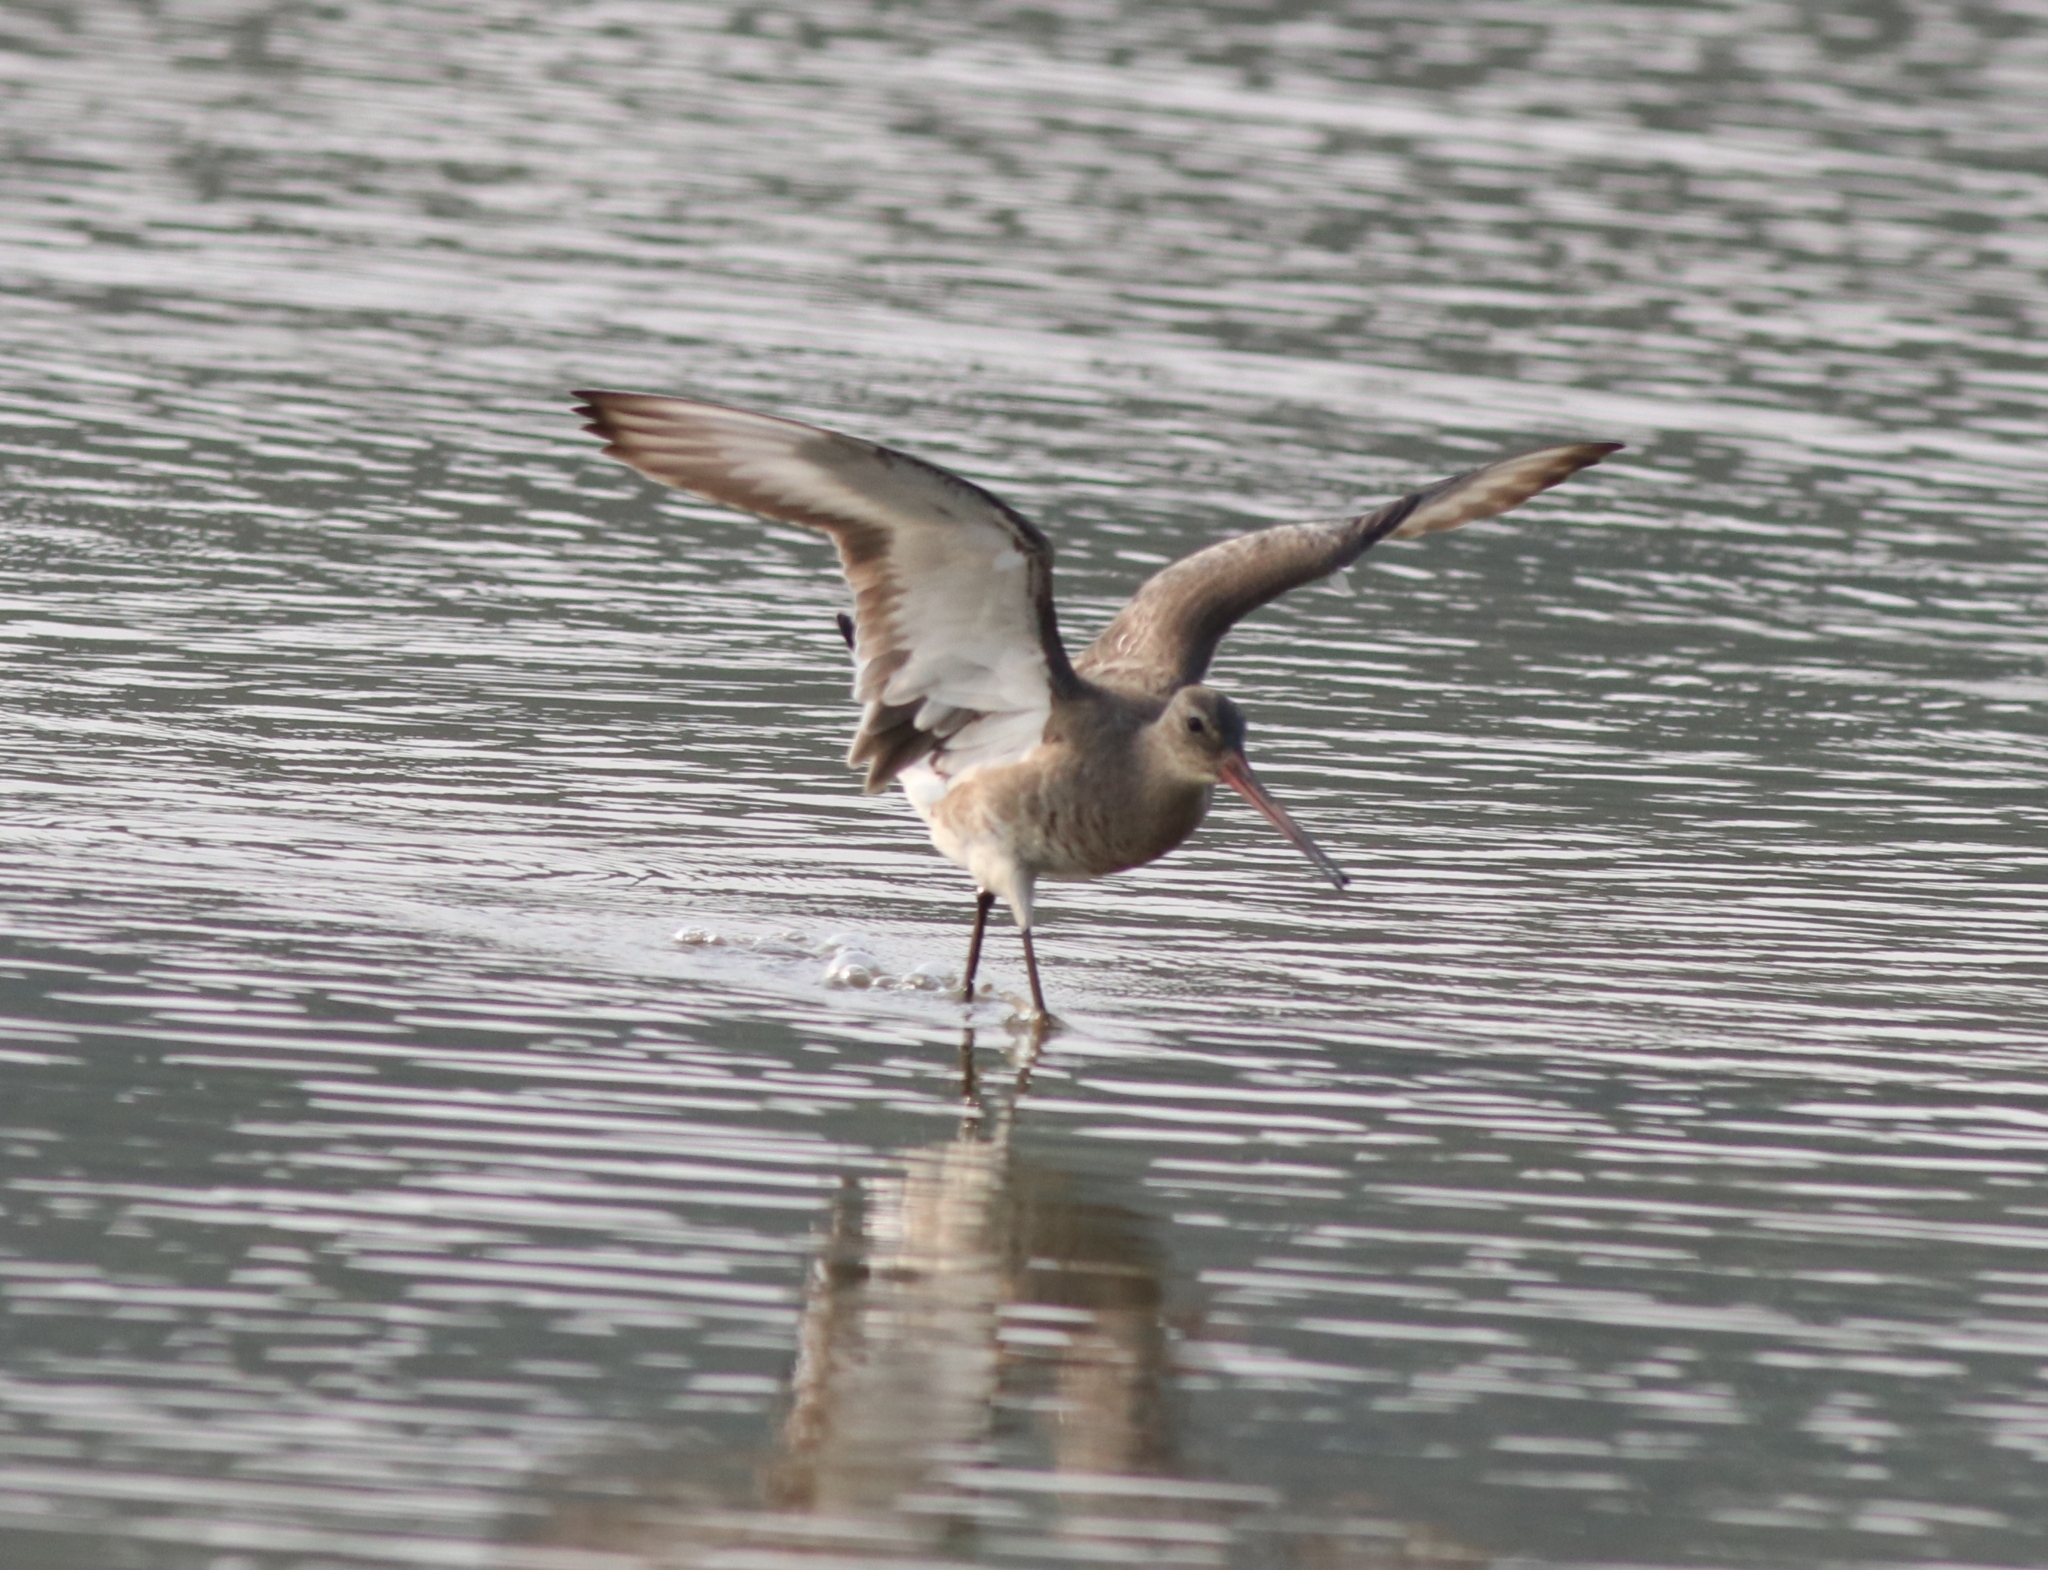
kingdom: Animalia
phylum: Chordata
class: Aves
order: Charadriiformes
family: Scolopacidae
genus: Limosa
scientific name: Limosa limosa
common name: Black-tailed godwit
